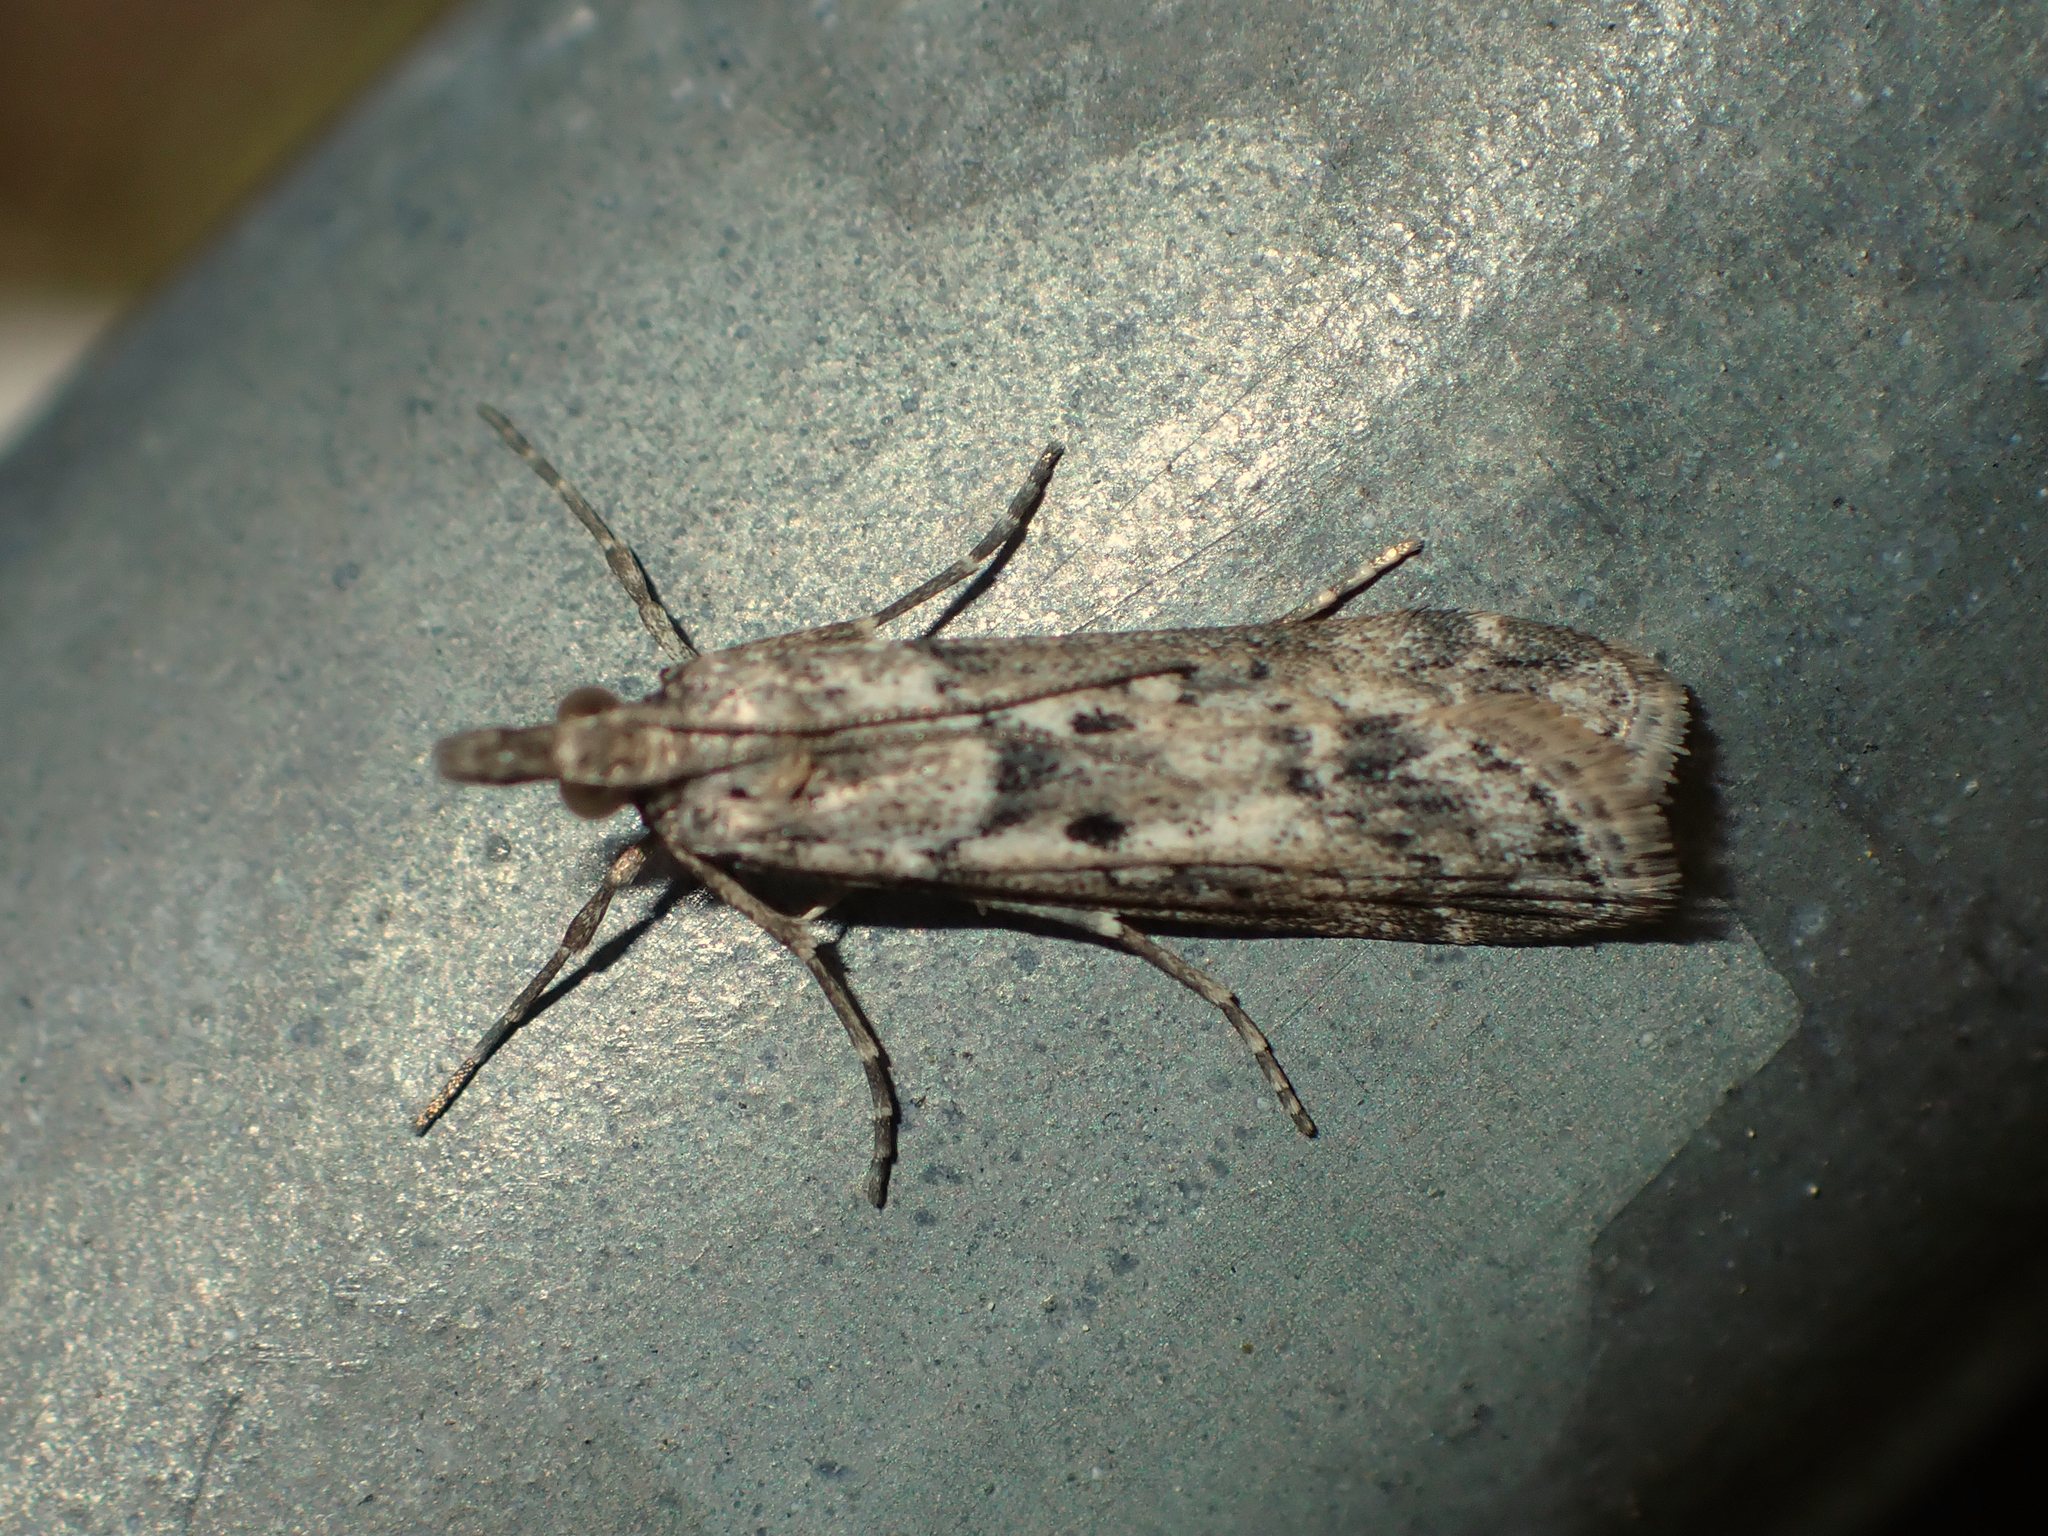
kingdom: Animalia
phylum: Arthropoda
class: Insecta
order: Lepidoptera
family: Crambidae
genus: Eudonia
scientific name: Eudonia leptalea
